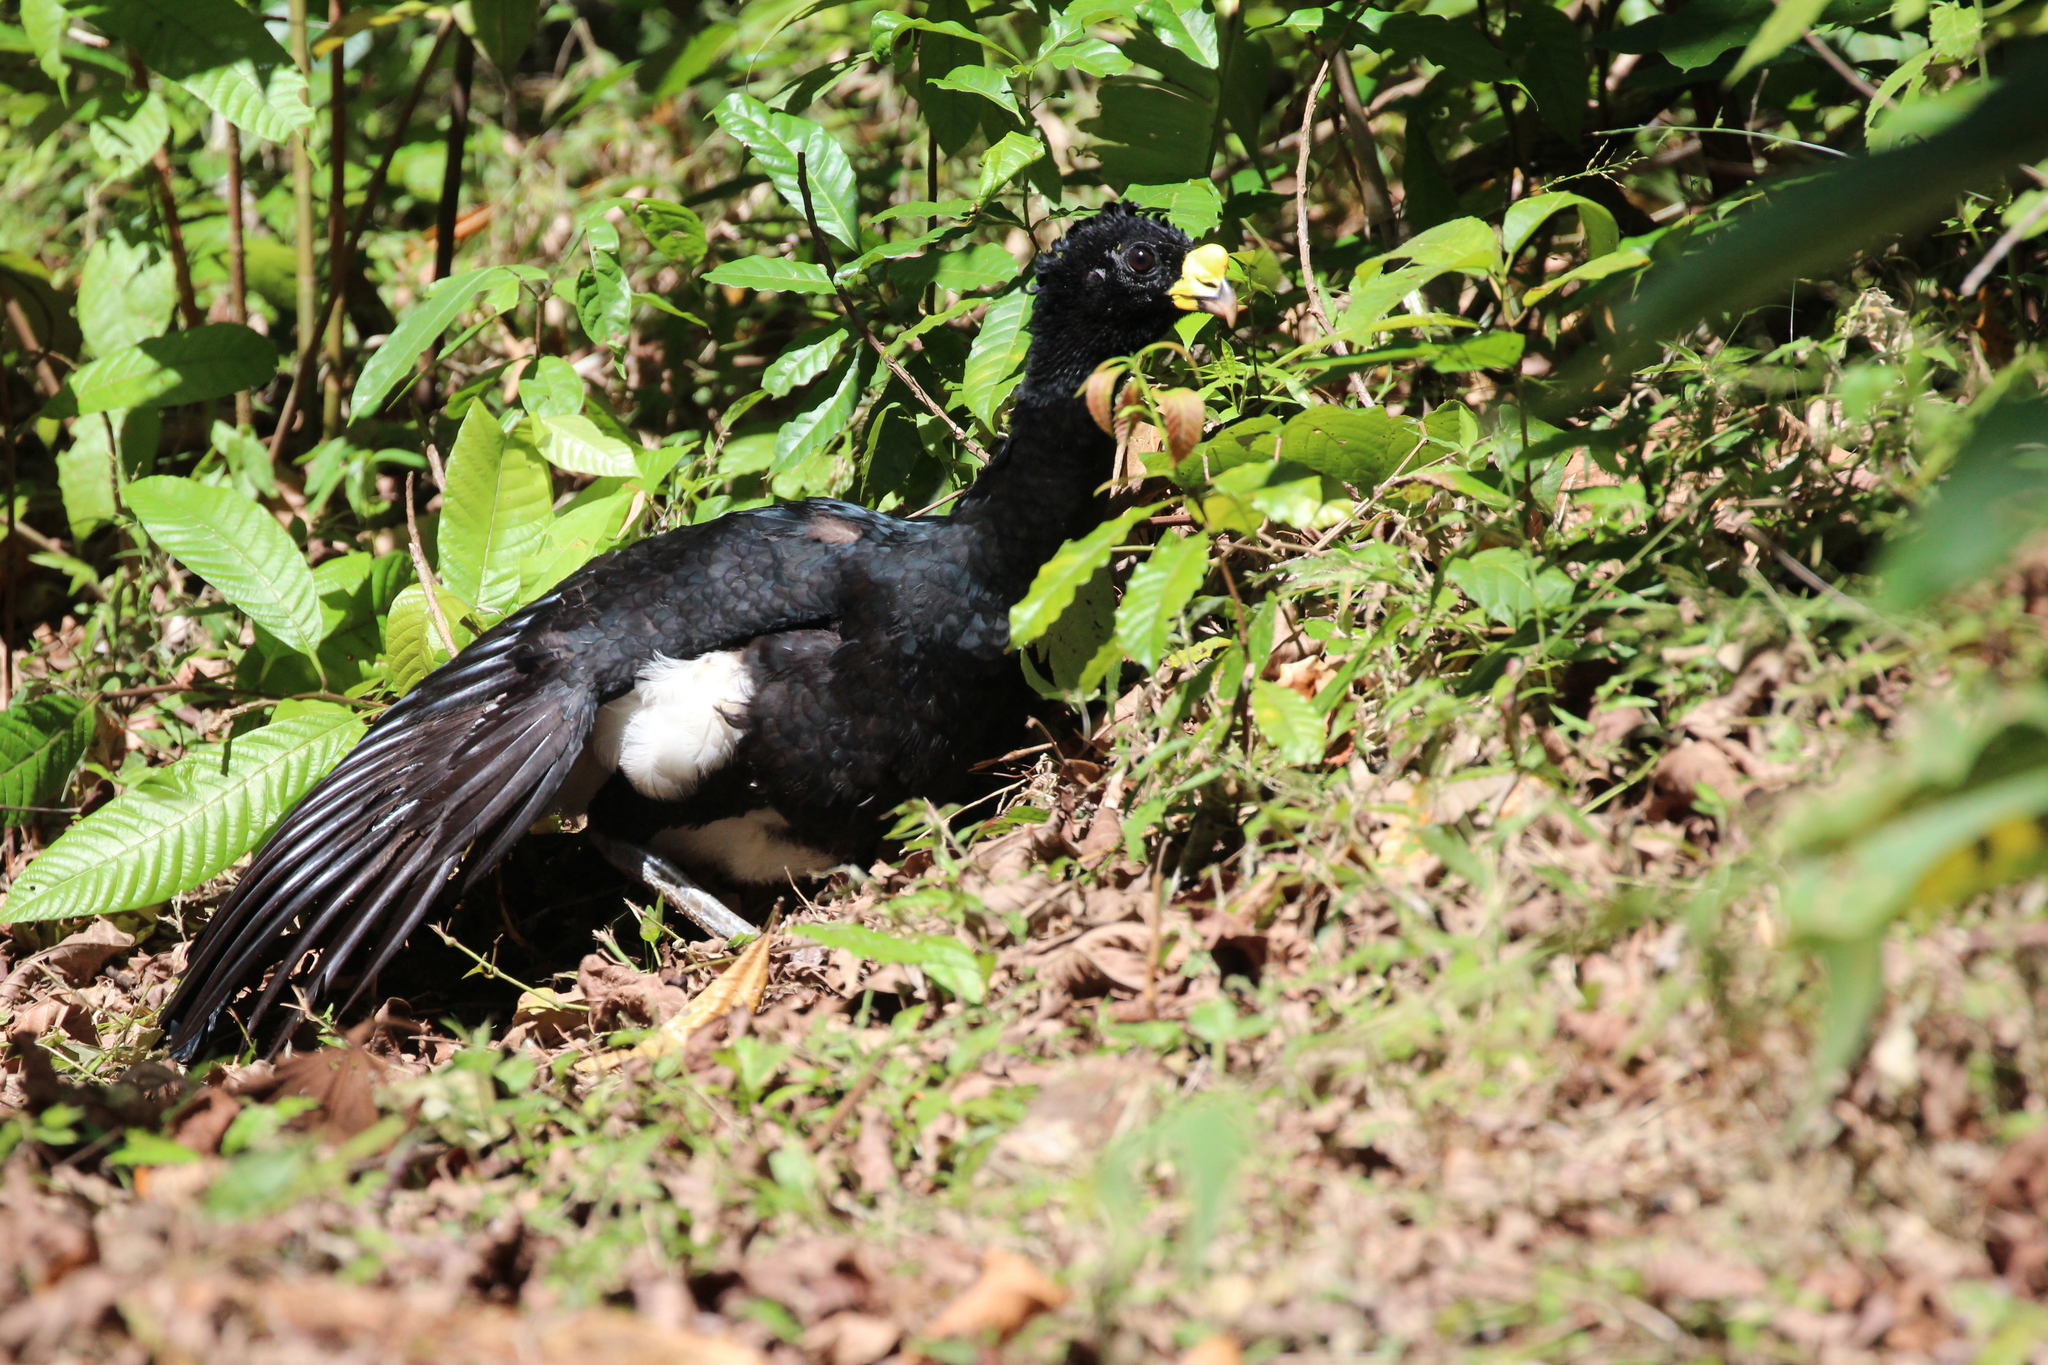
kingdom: Animalia
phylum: Chordata
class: Aves
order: Galliformes
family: Cracidae
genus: Crax
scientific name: Crax rubra
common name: Great curassow
